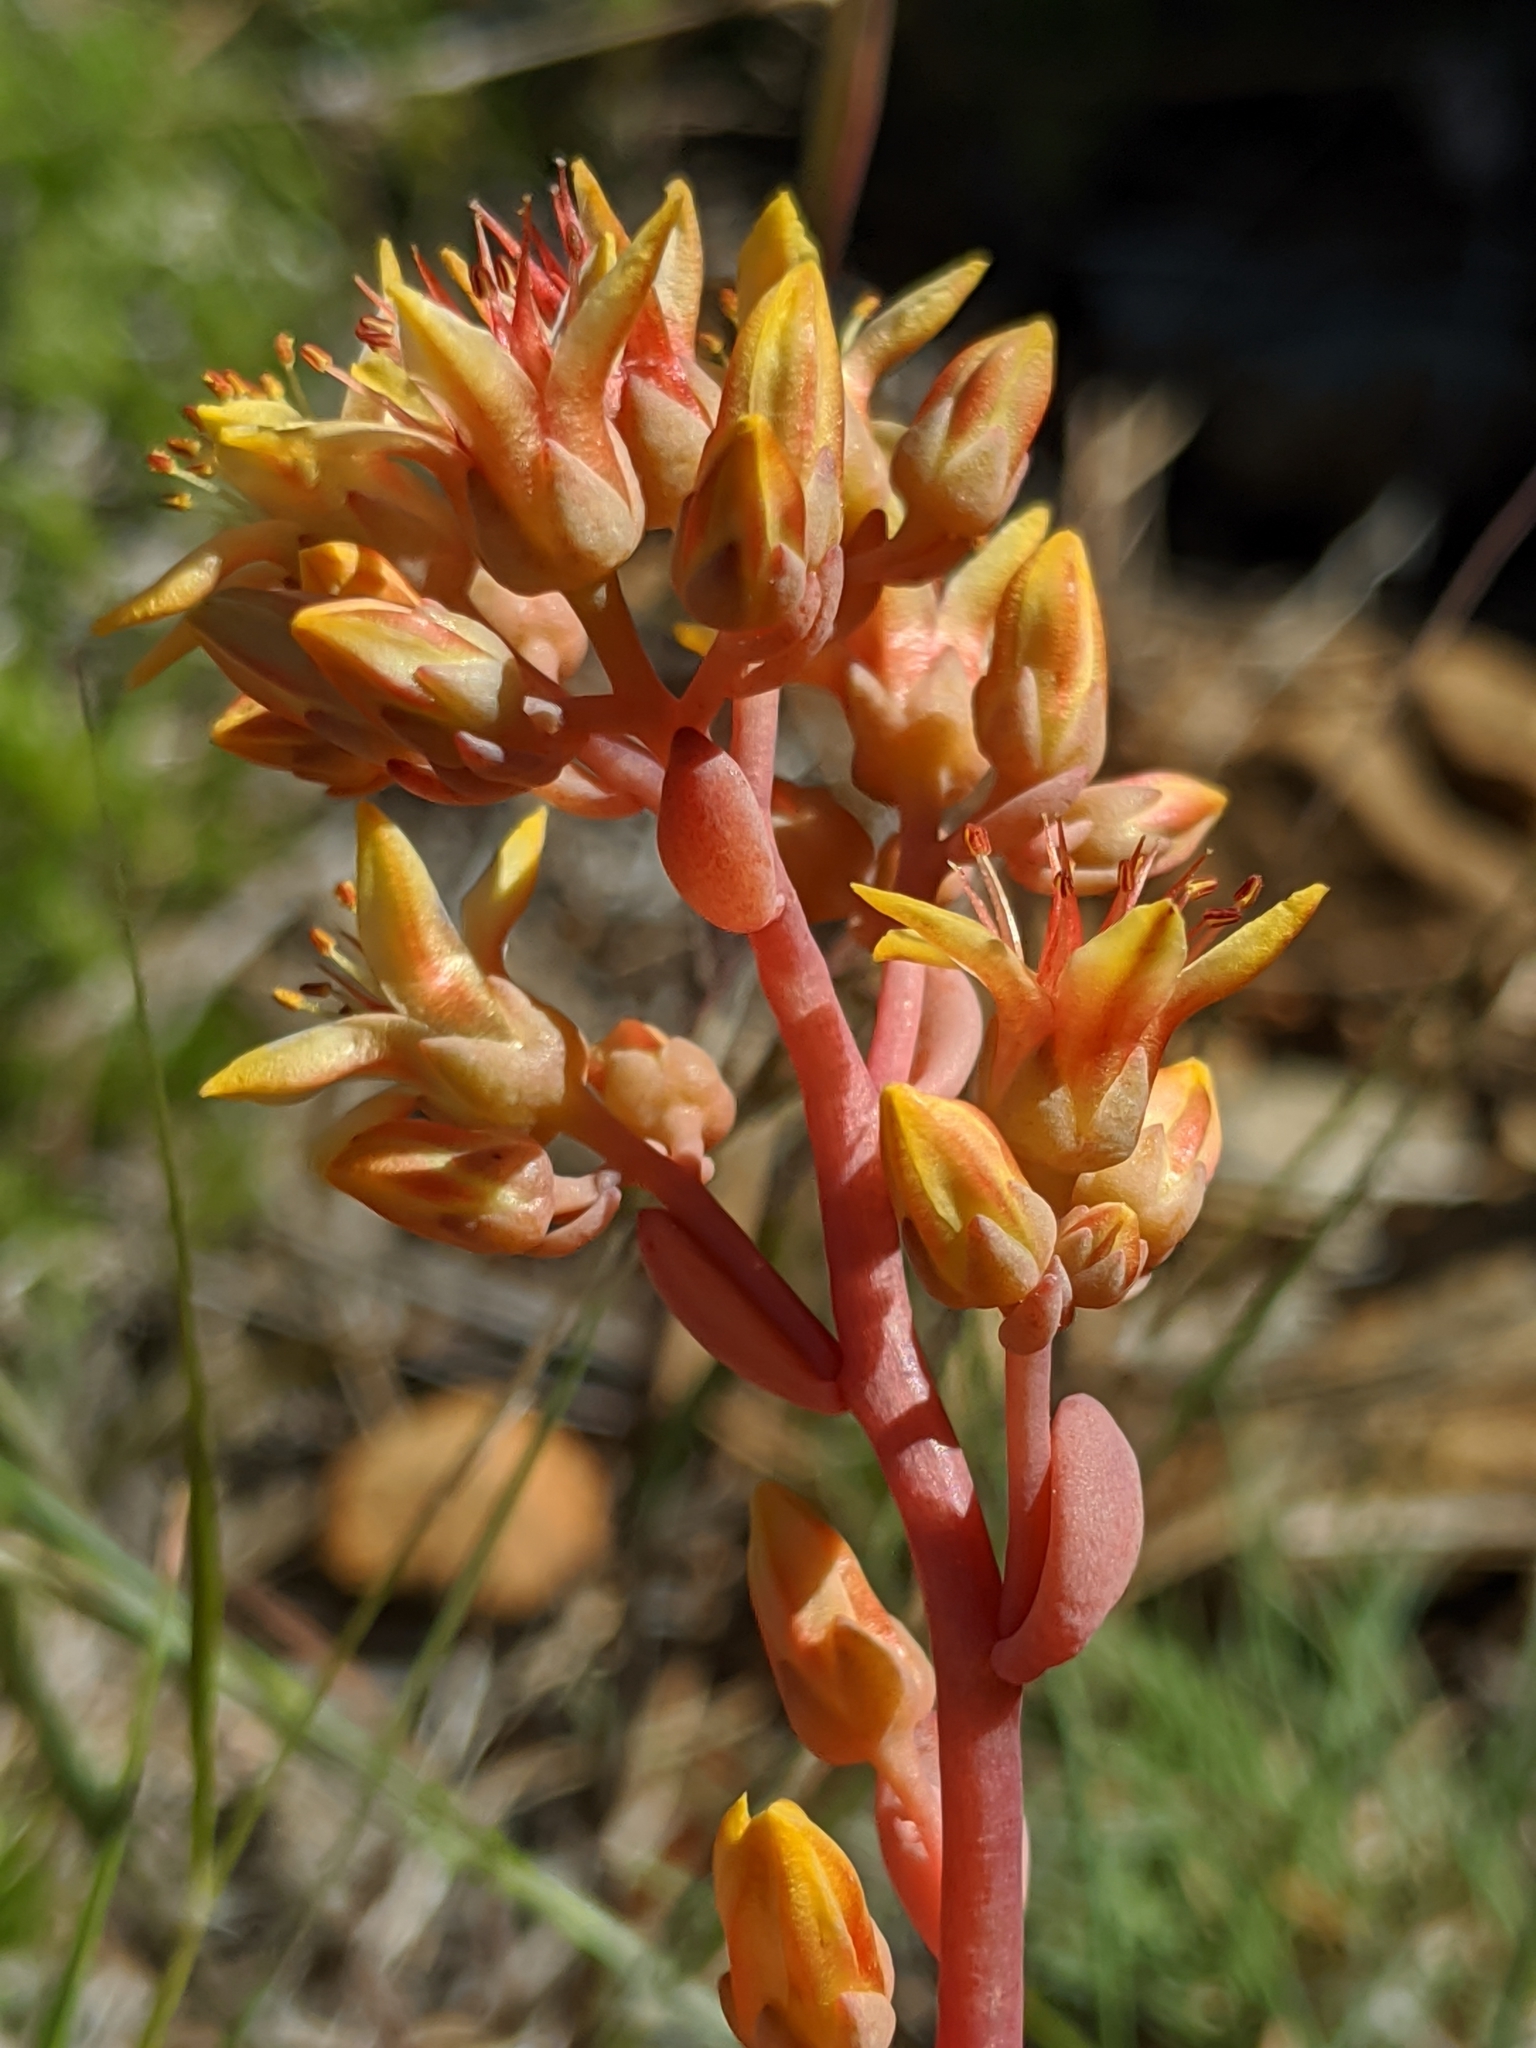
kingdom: Plantae
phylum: Tracheophyta
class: Magnoliopsida
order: Saxifragales
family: Crassulaceae
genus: Sedum
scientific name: Sedum obtusatum
